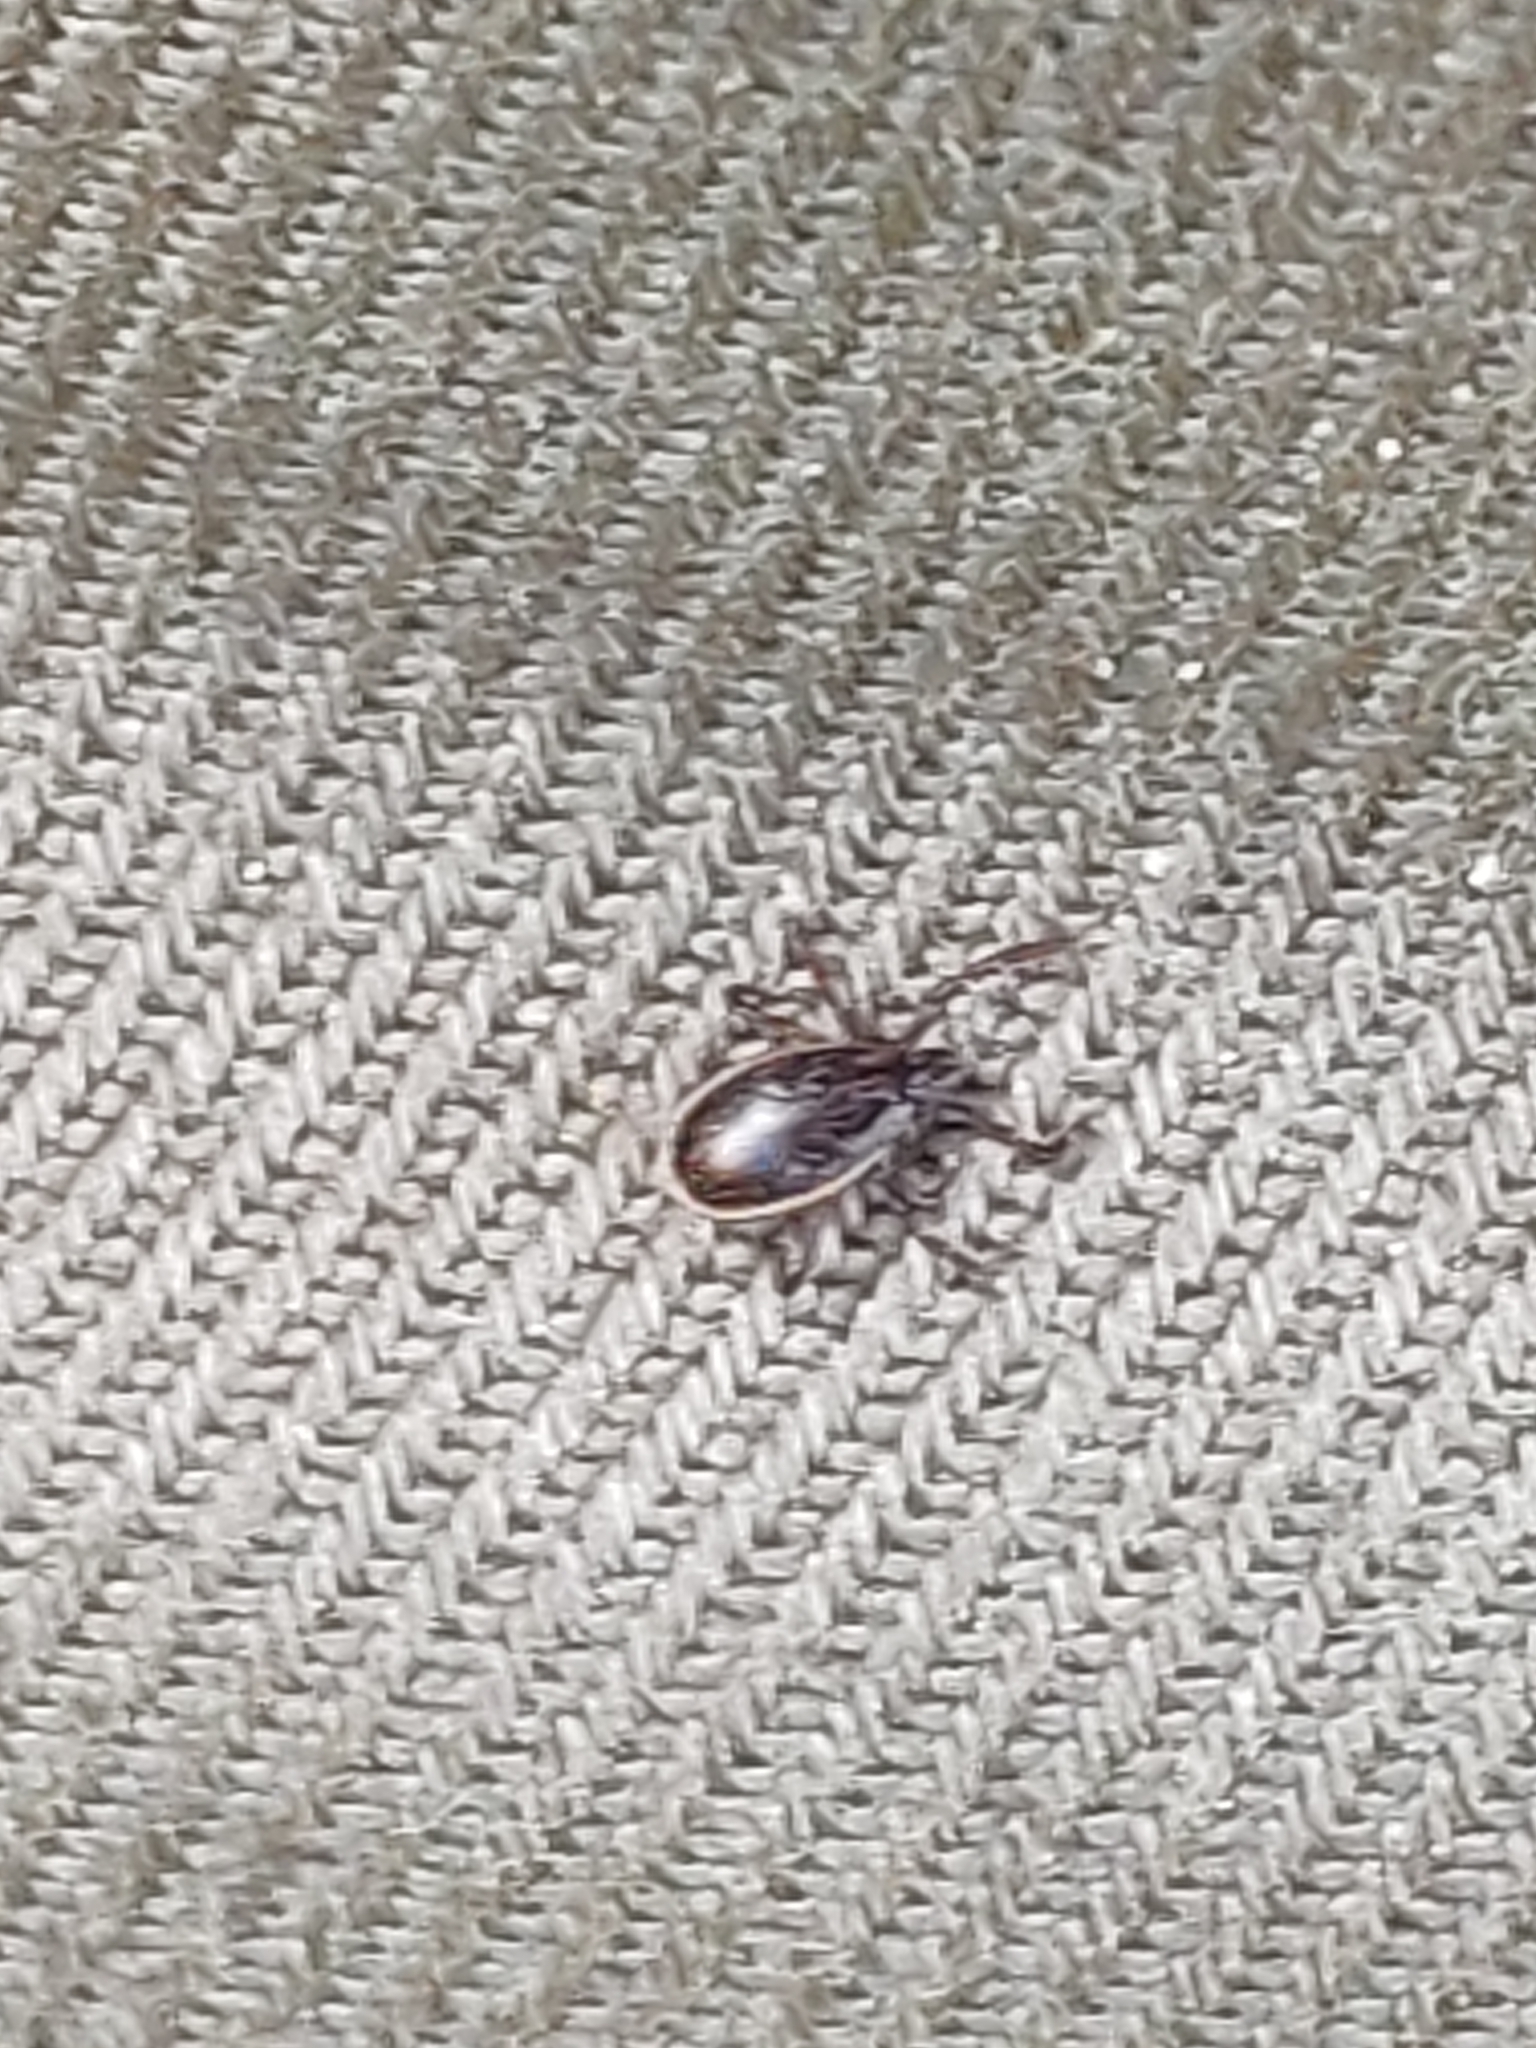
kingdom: Animalia
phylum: Arthropoda
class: Arachnida
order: Ixodida
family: Ixodidae
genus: Ixodes
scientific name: Ixodes ricinus
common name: Castor bean tick
